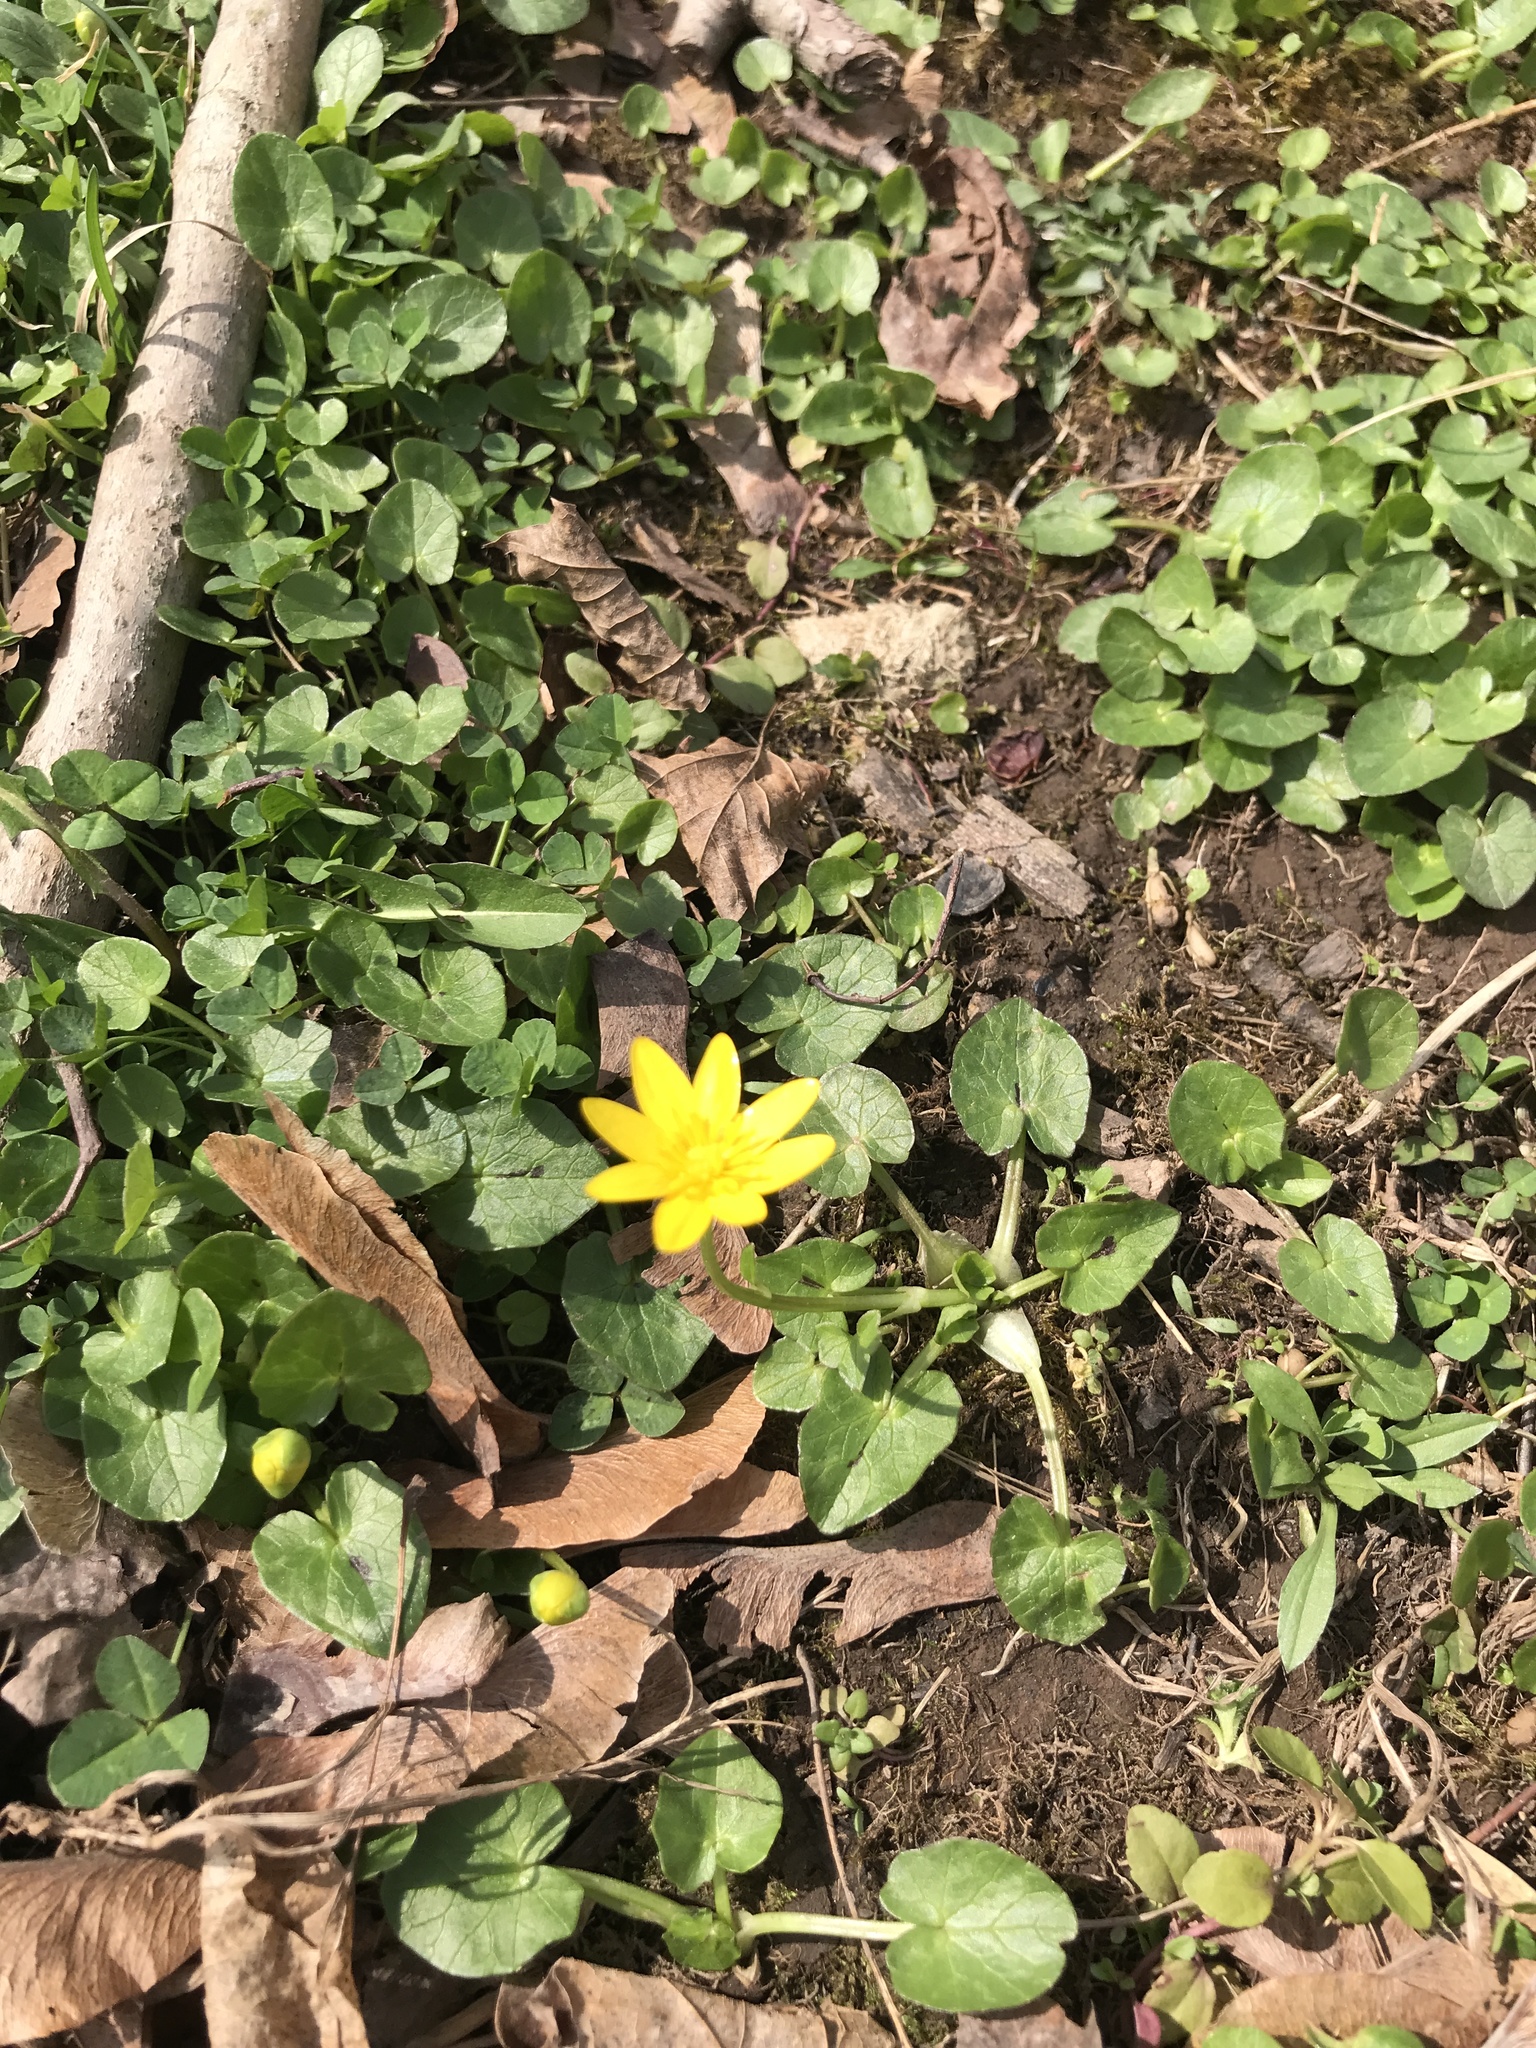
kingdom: Plantae
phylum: Tracheophyta
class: Magnoliopsida
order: Ranunculales
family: Ranunculaceae
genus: Ficaria
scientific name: Ficaria verna
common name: Lesser celandine
